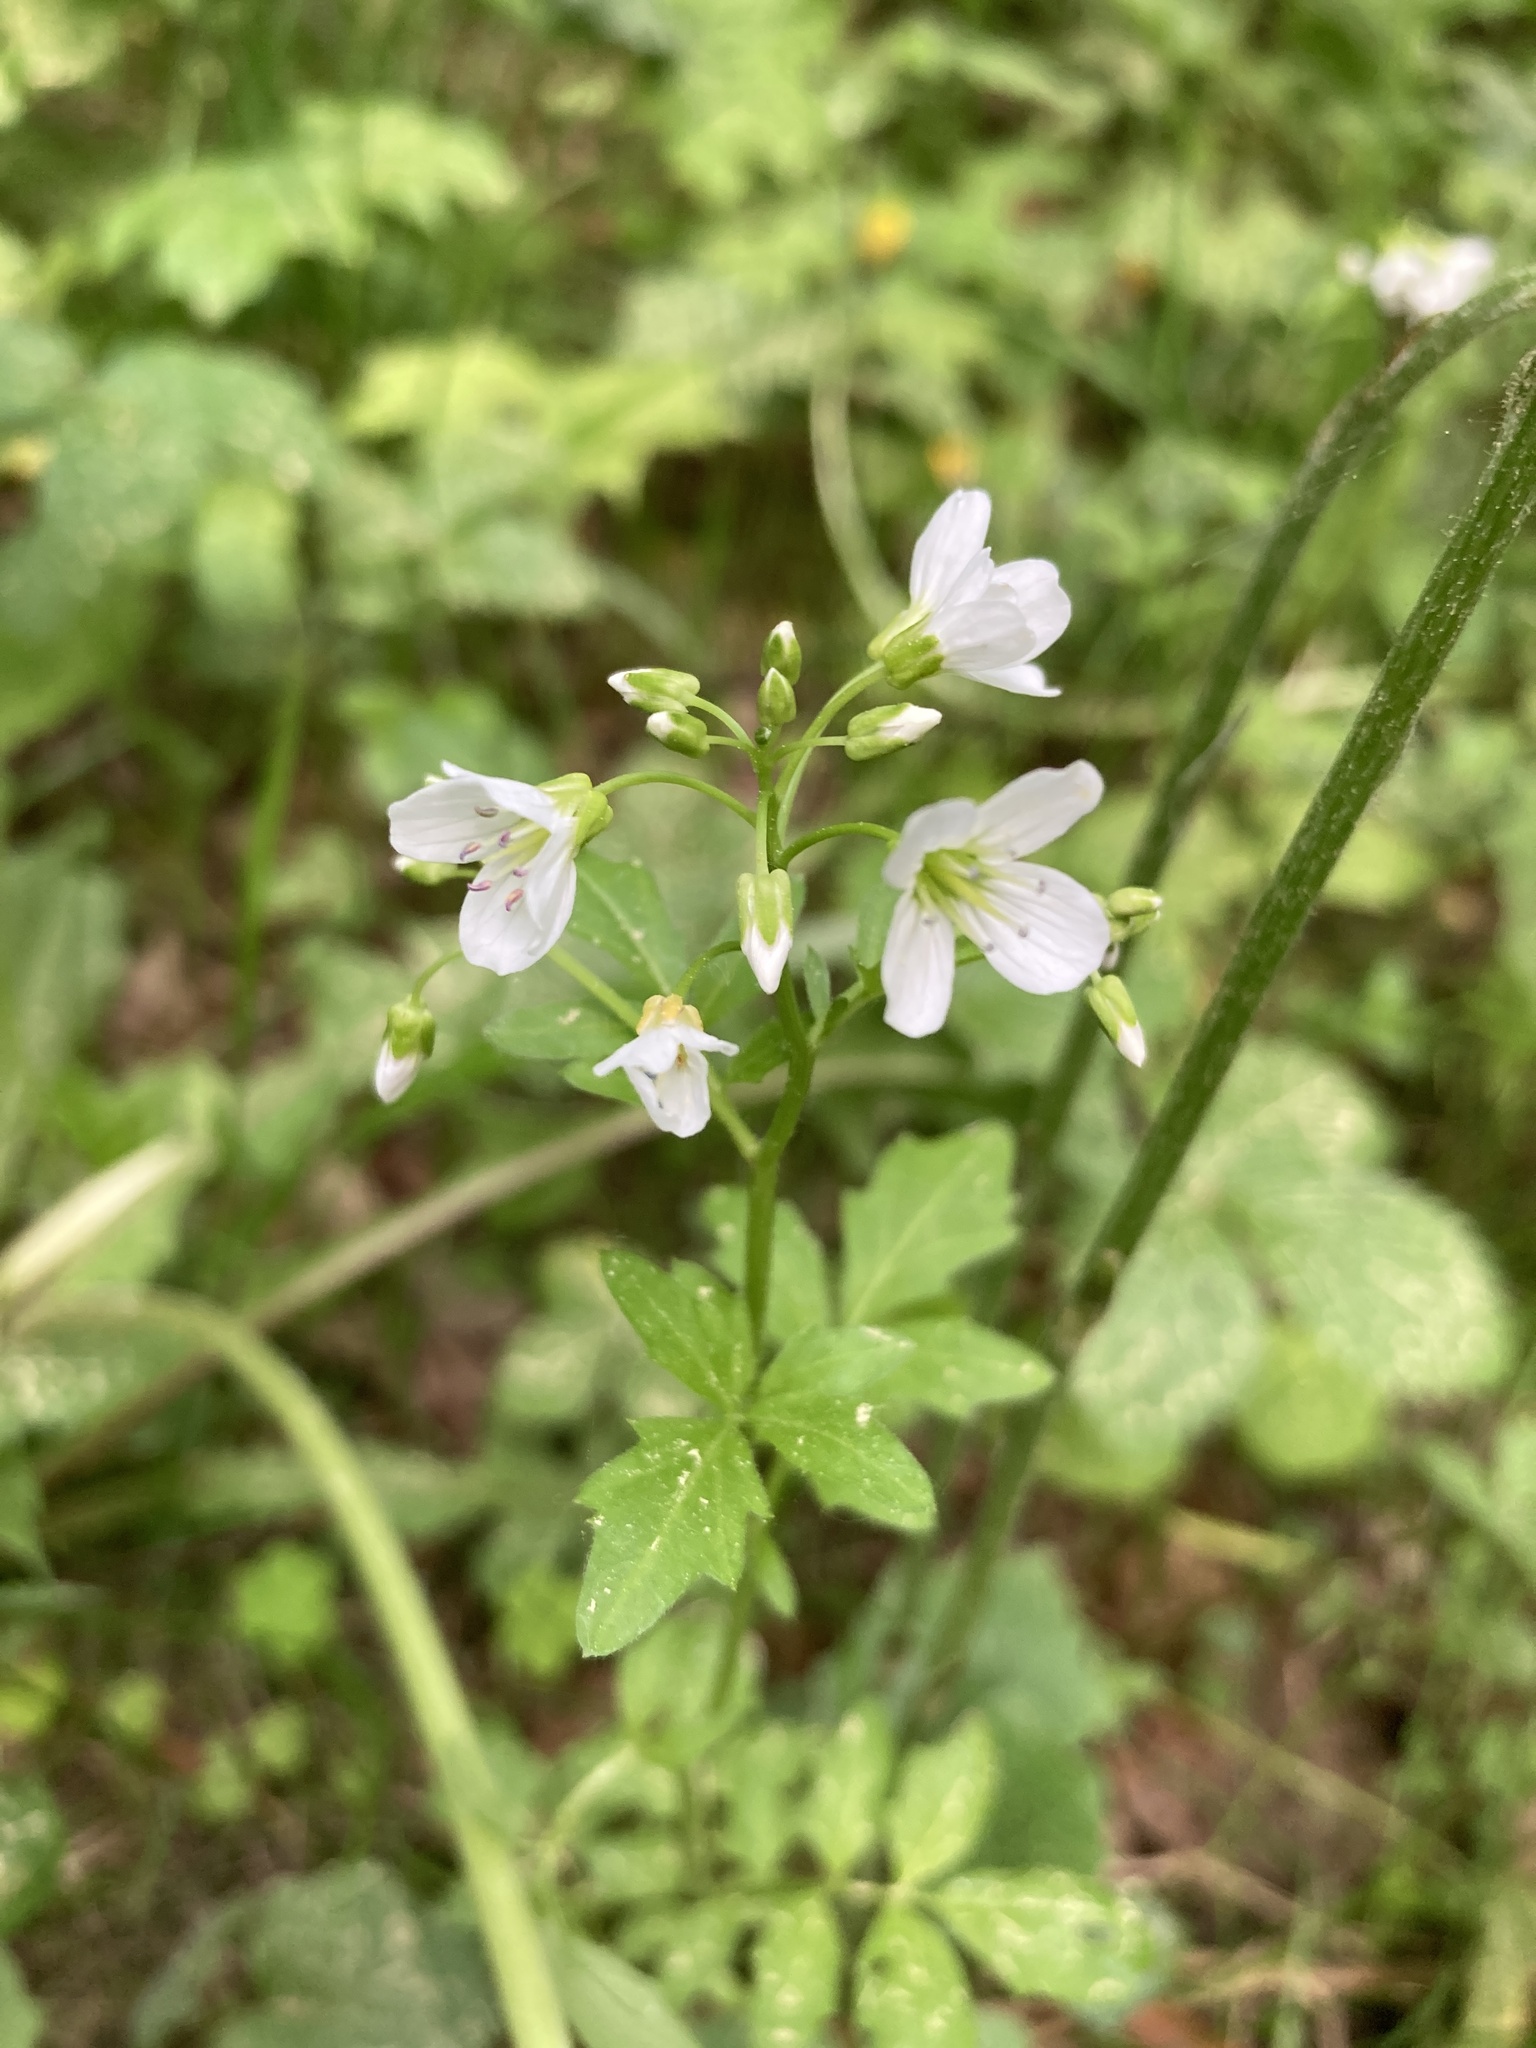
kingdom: Plantae
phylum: Tracheophyta
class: Magnoliopsida
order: Brassicales
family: Brassicaceae
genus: Cardamine
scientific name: Cardamine amara
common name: Large bitter-cress
